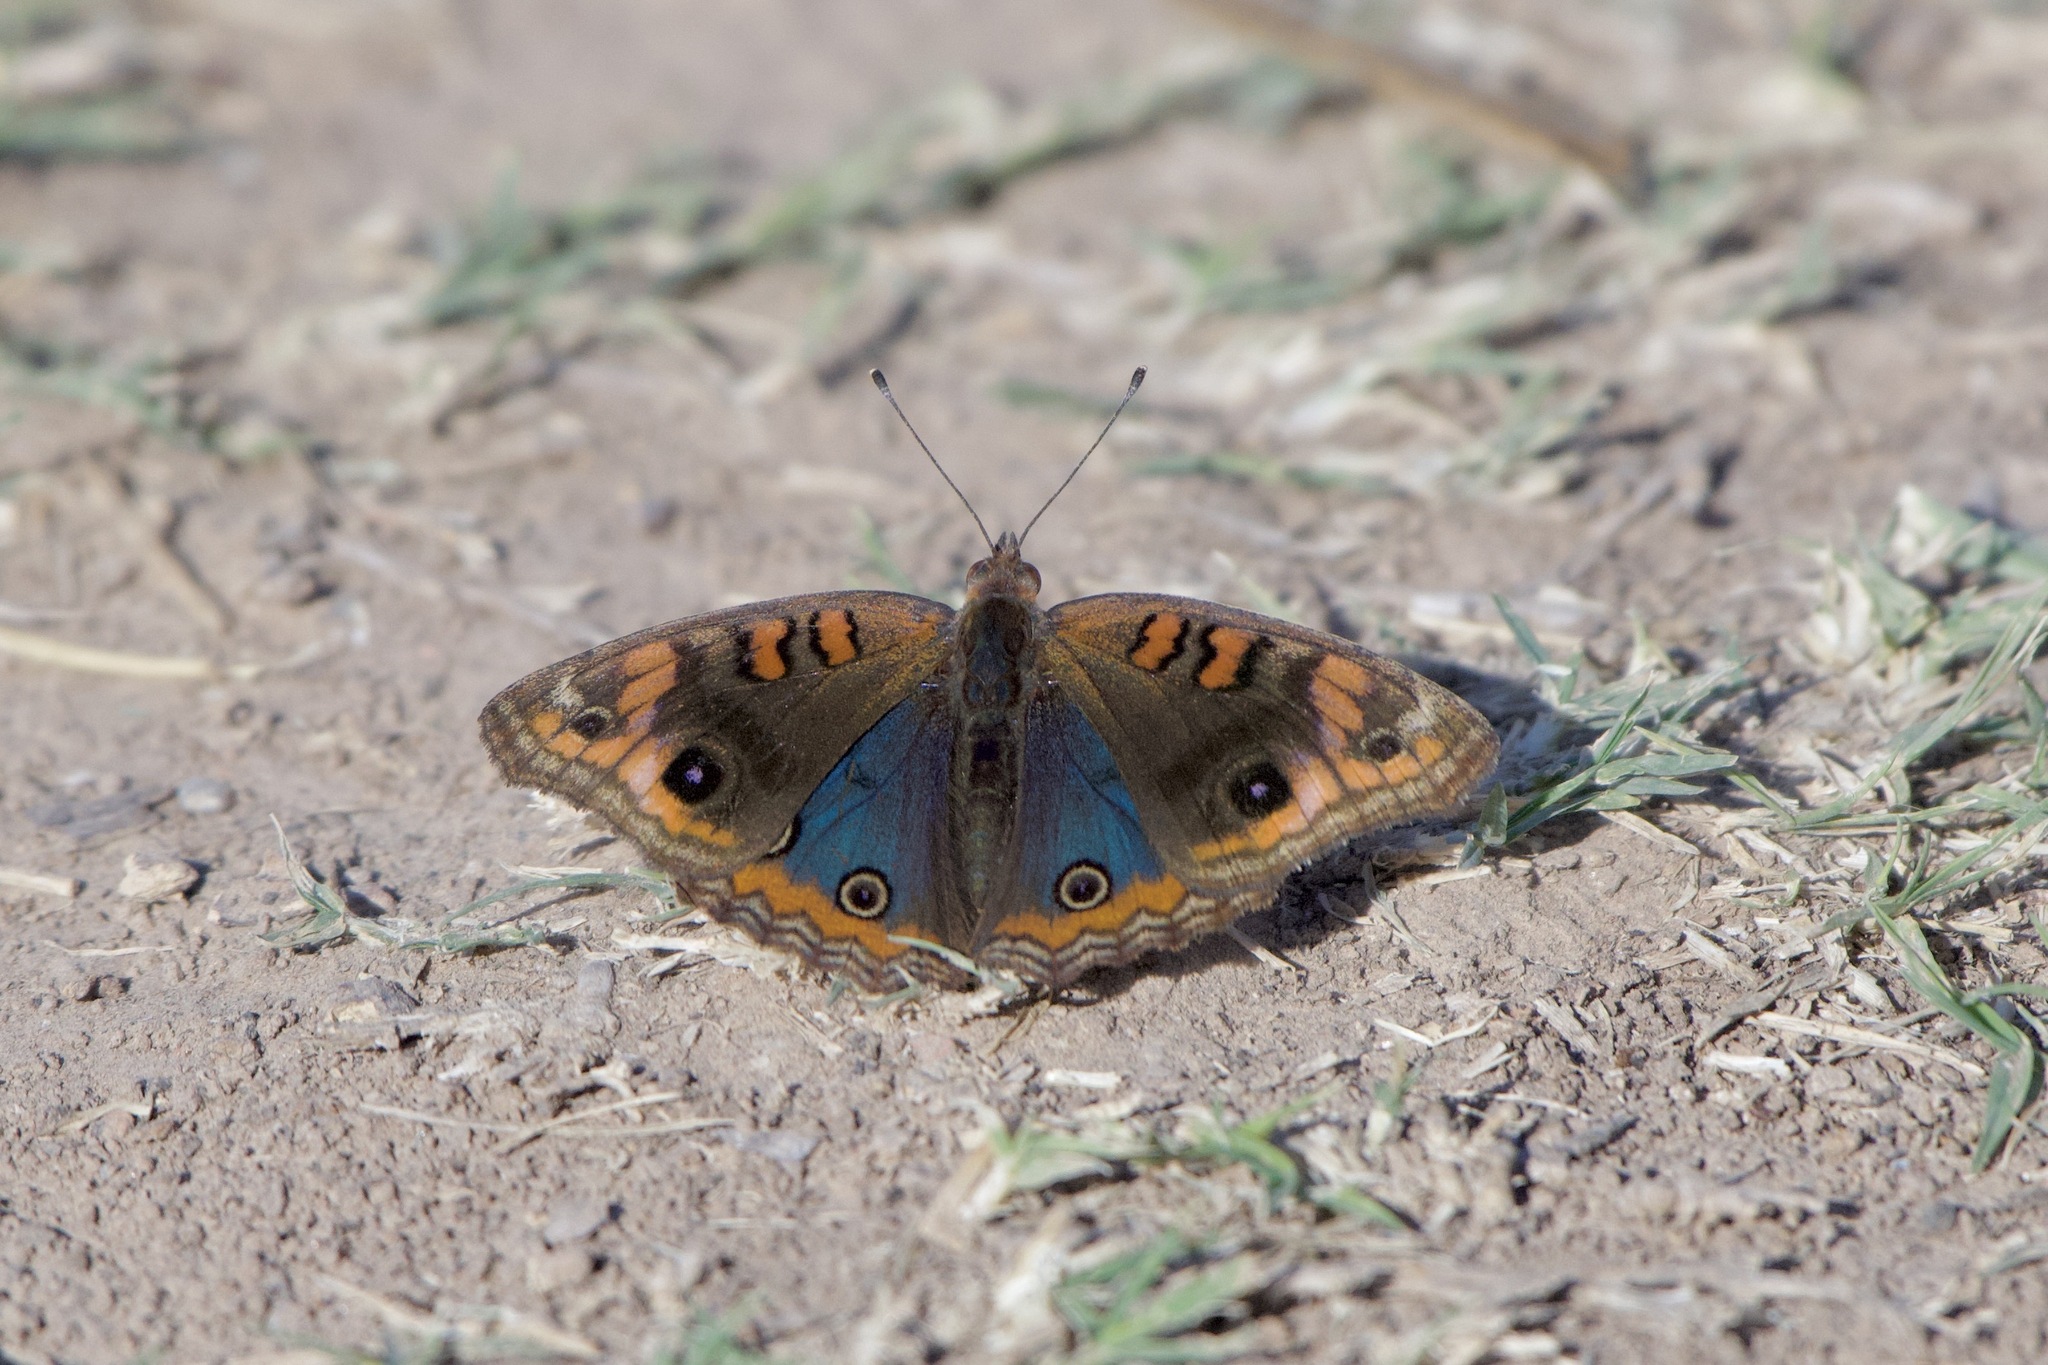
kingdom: Animalia
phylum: Arthropoda
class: Insecta
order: Lepidoptera
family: Nymphalidae
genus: Junonia
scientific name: Junonia lavinia
